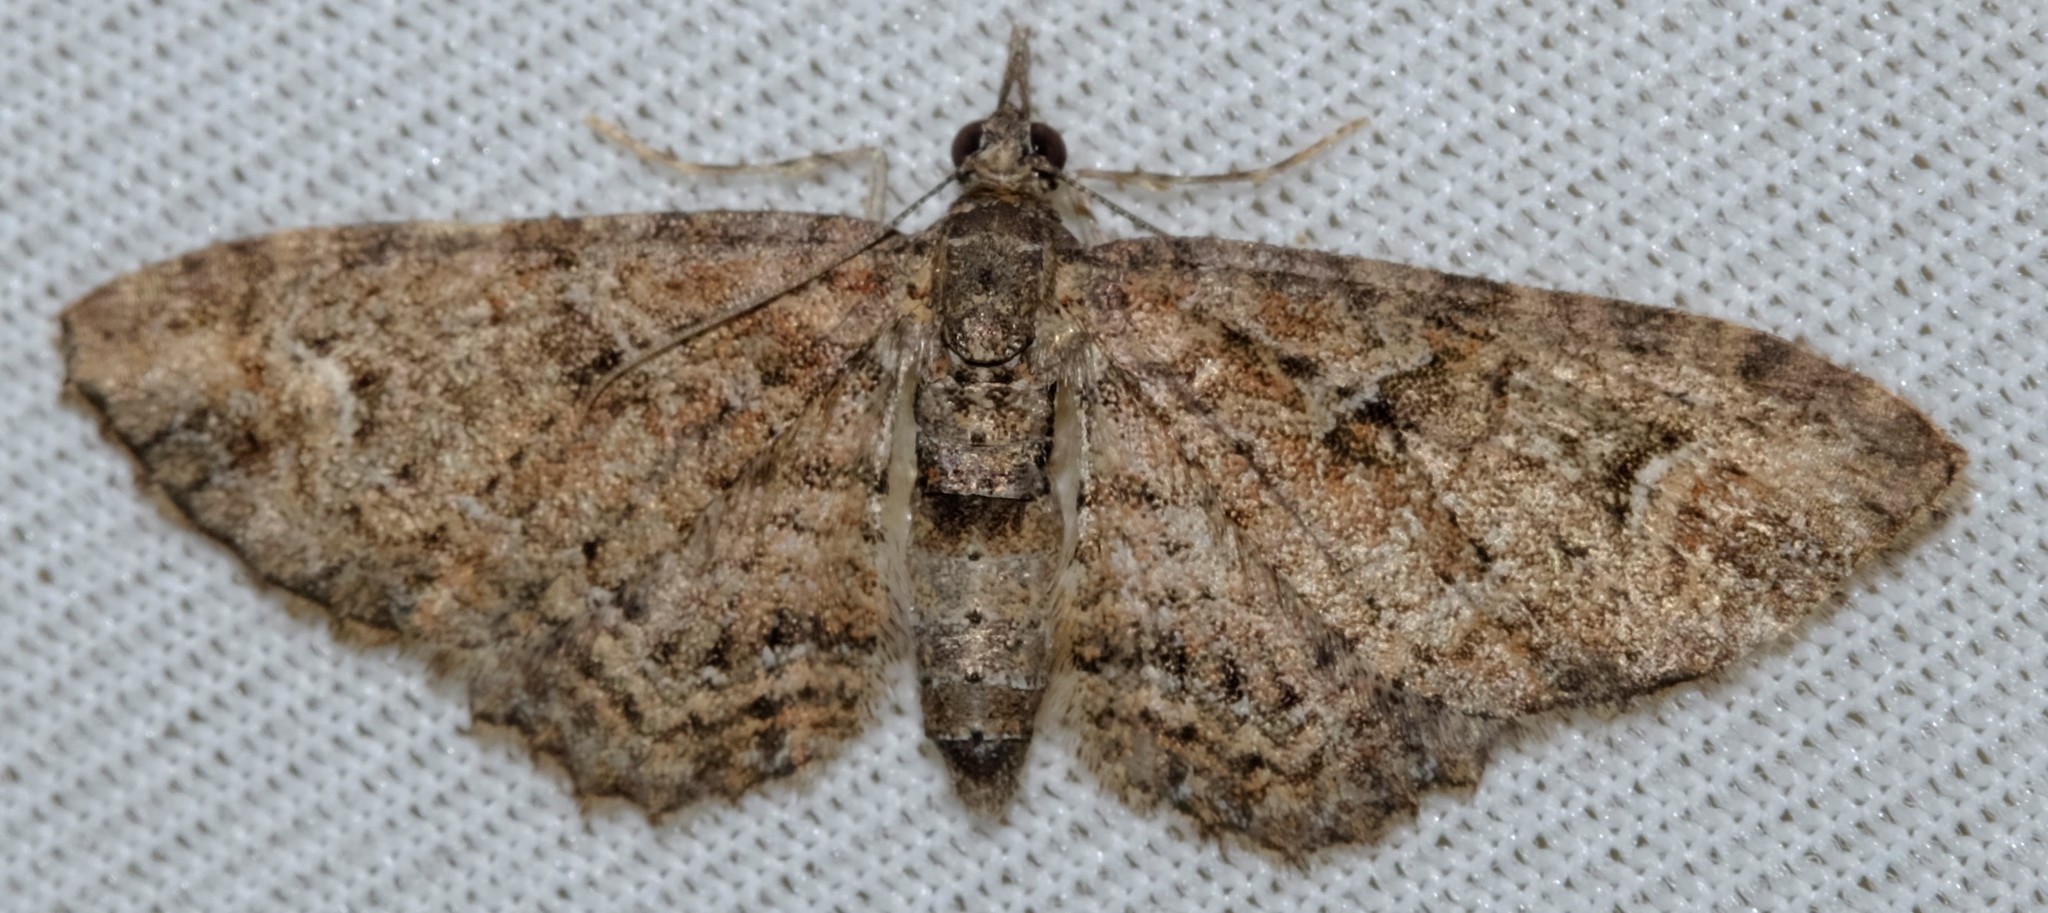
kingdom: Animalia
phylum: Arthropoda
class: Insecta
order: Lepidoptera
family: Geometridae
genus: Pasiphilodes
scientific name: Pasiphilodes testulata
